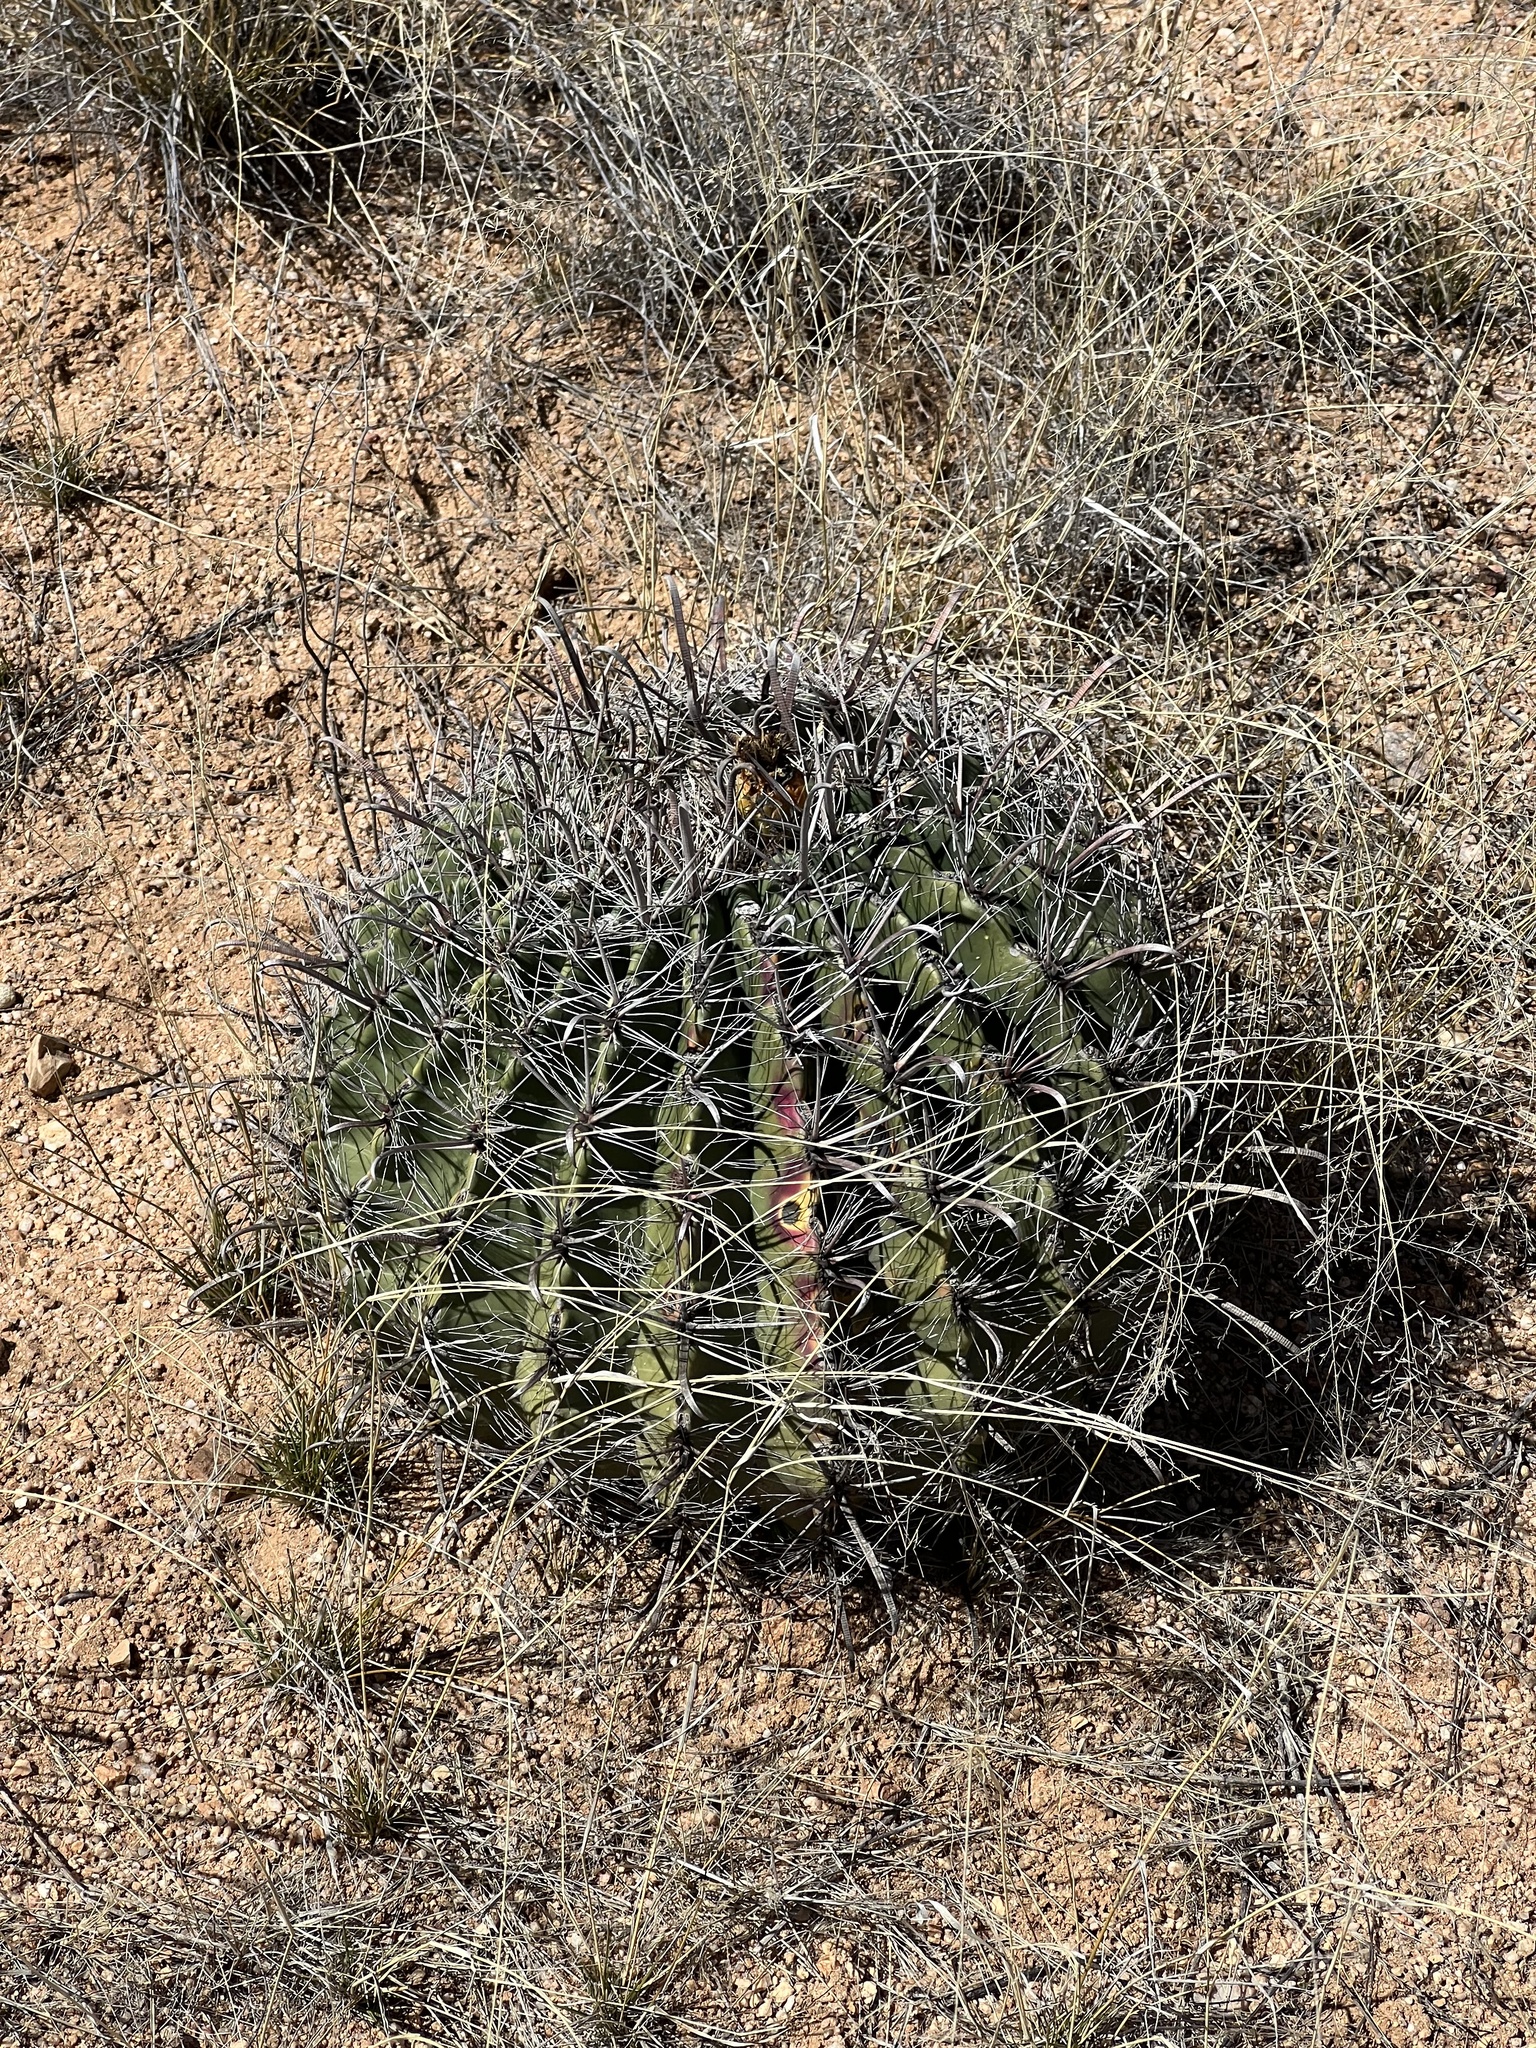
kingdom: Plantae
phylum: Tracheophyta
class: Magnoliopsida
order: Caryophyllales
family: Cactaceae
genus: Ferocactus
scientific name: Ferocactus wislizeni
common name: Candy barrel cactus
